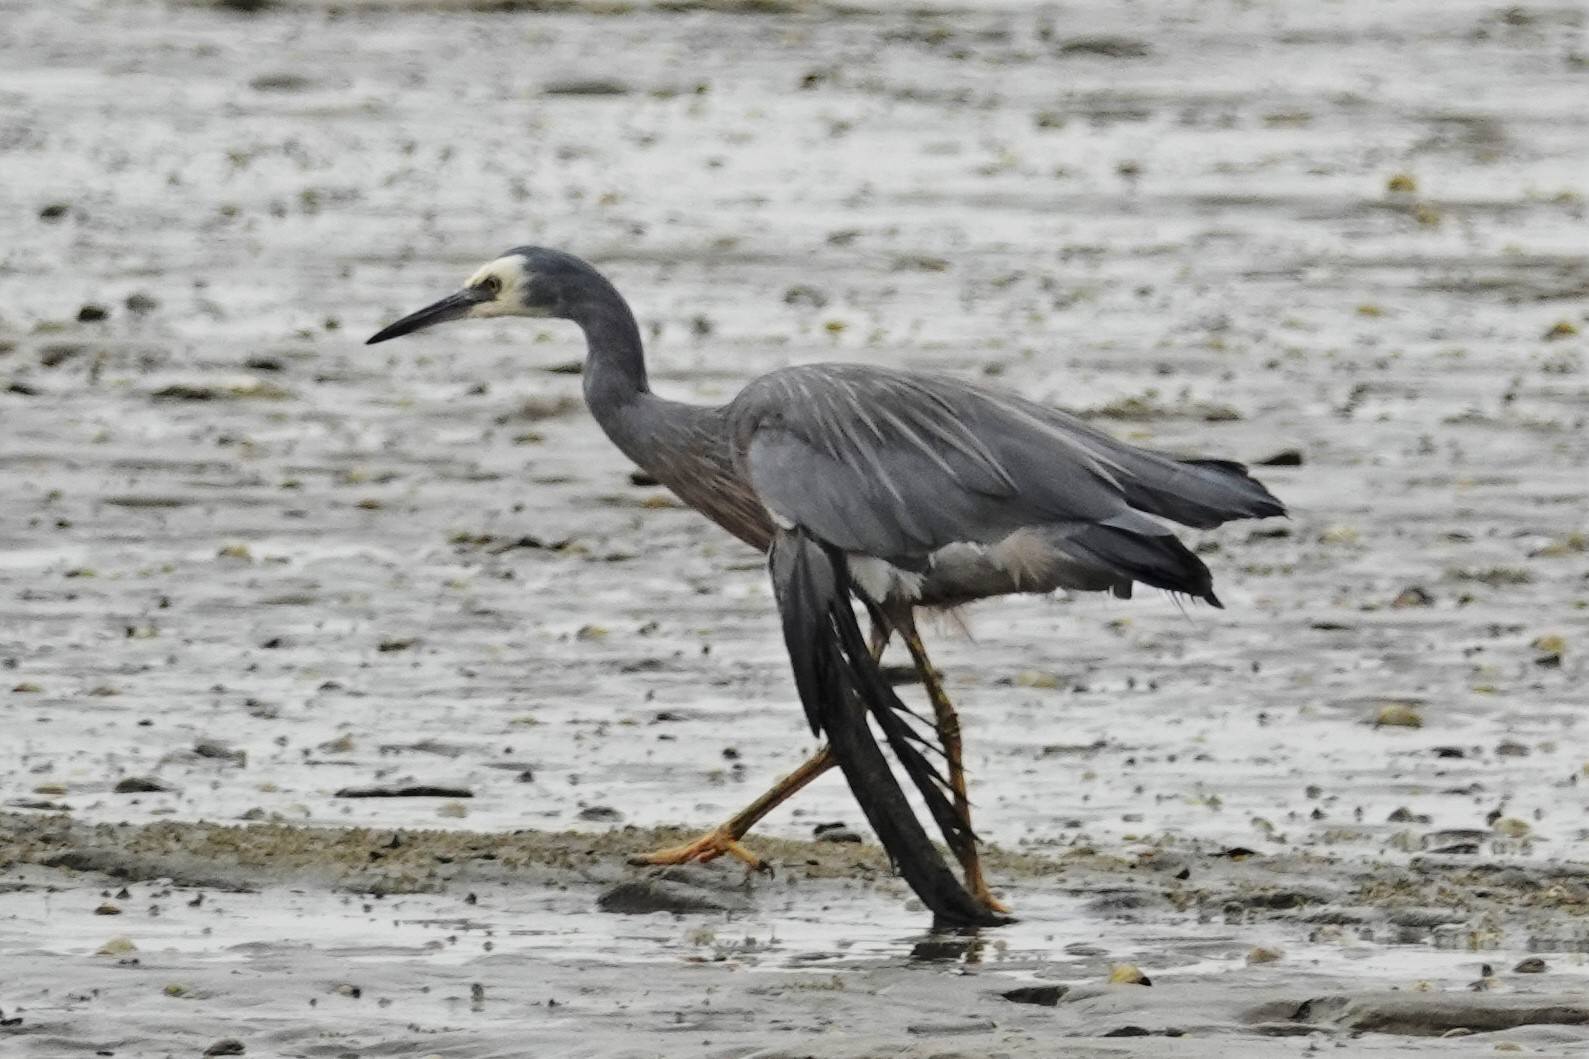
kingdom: Animalia
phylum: Chordata
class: Aves
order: Pelecaniformes
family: Ardeidae
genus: Egretta
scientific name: Egretta novaehollandiae
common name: White-faced heron
